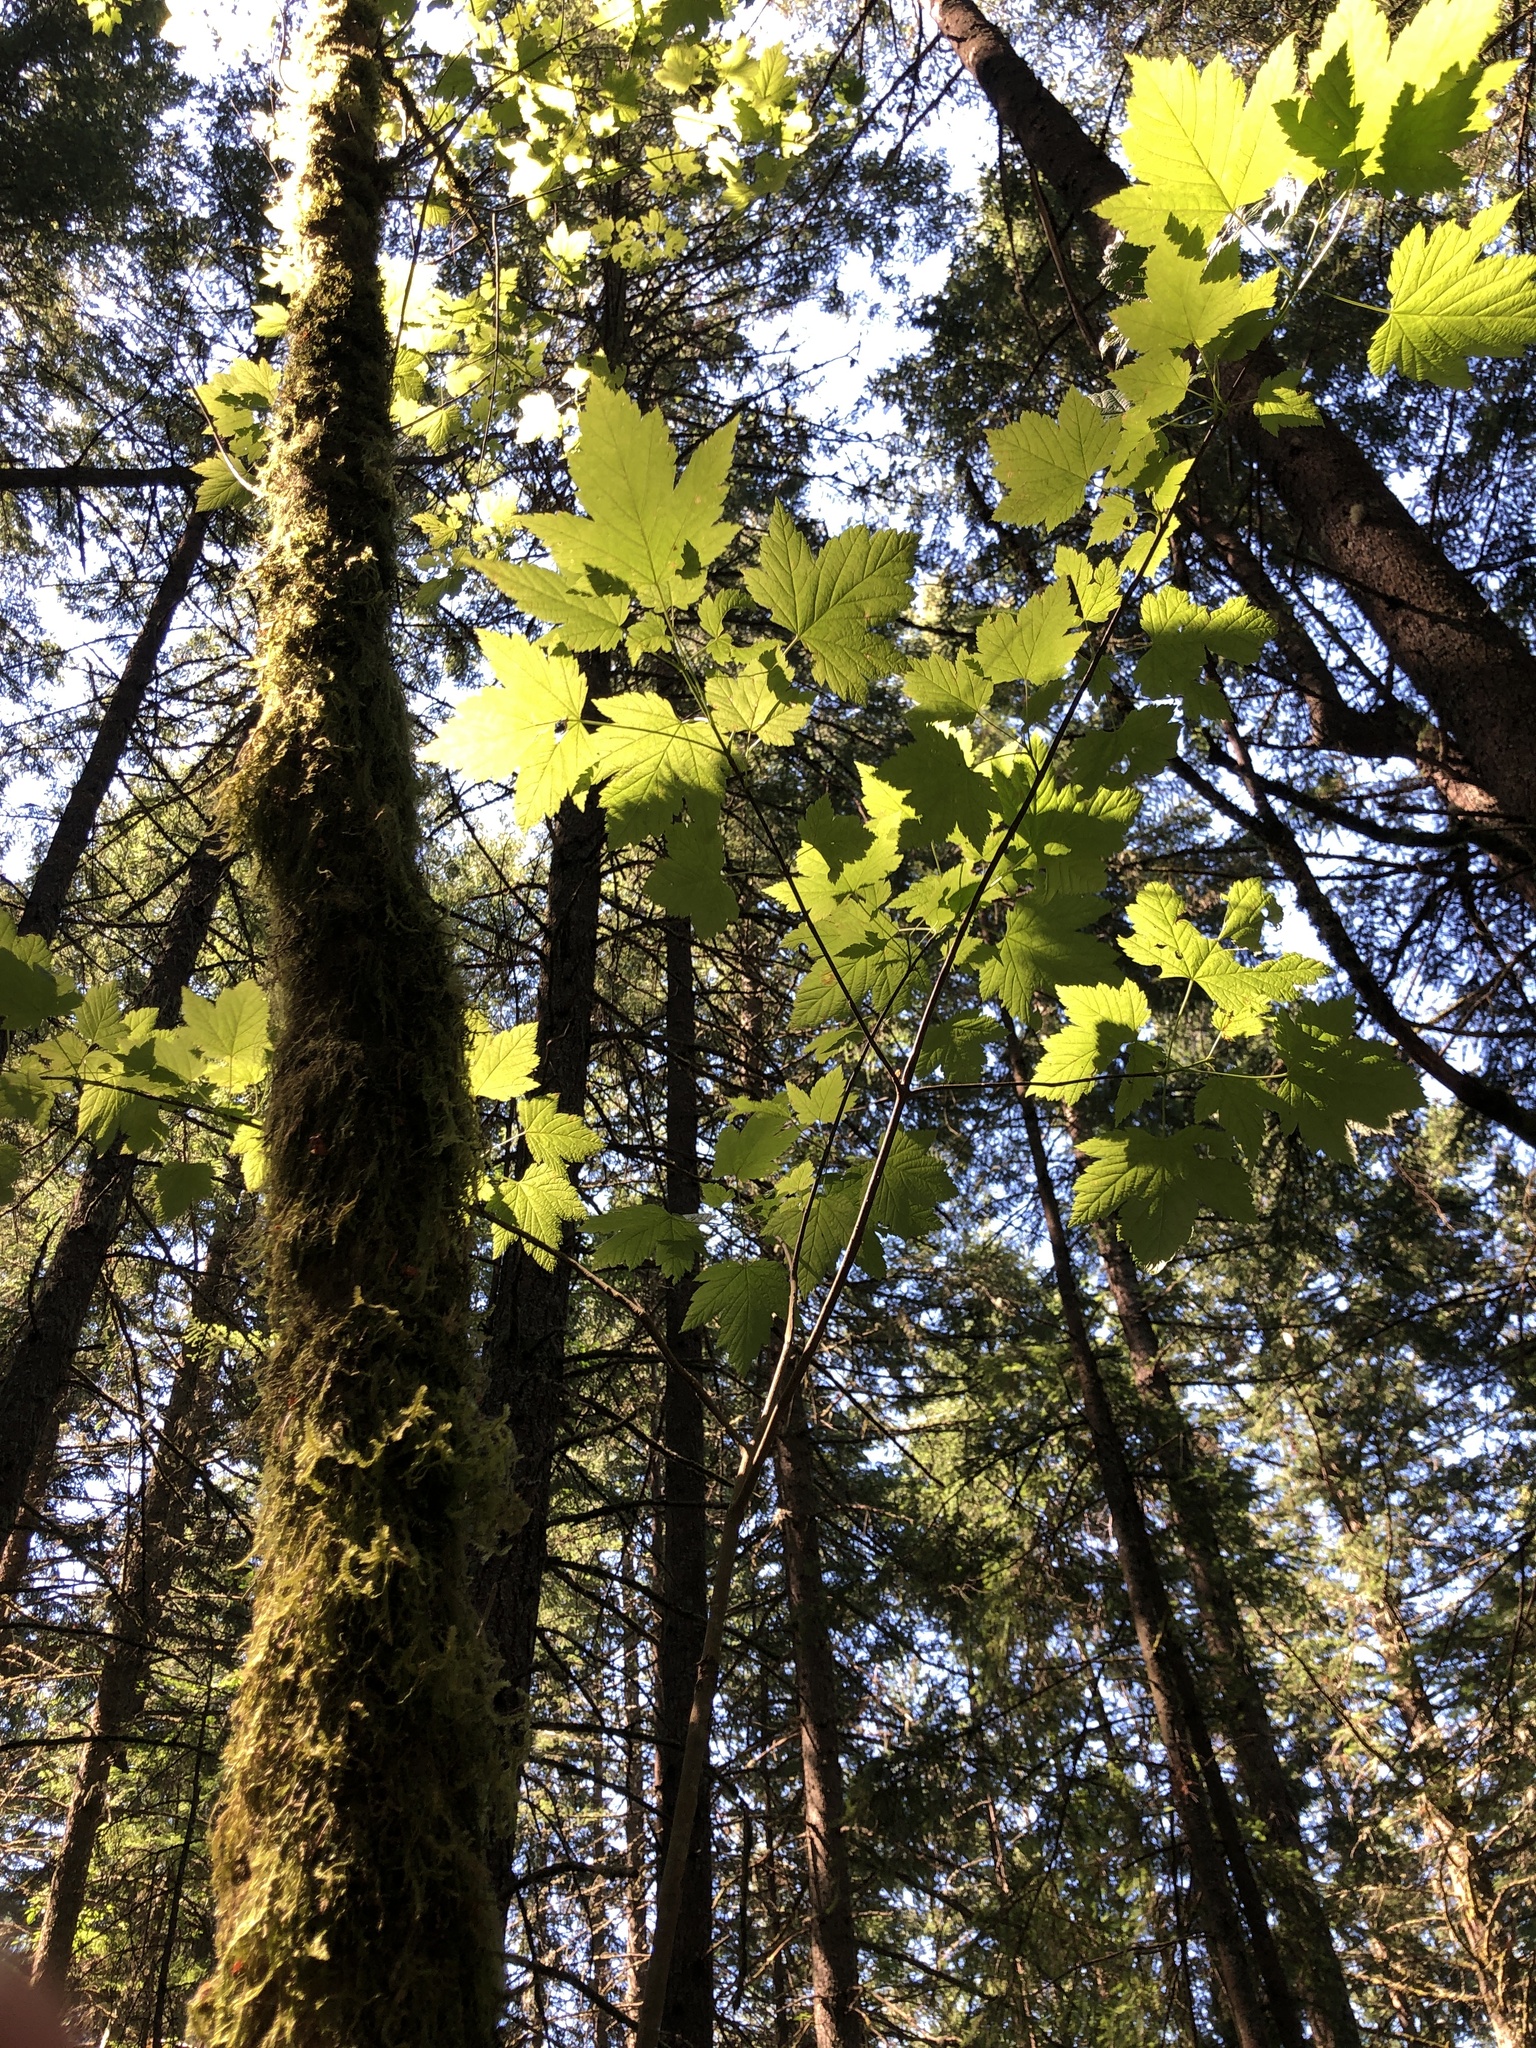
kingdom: Plantae
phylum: Tracheophyta
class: Magnoliopsida
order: Sapindales
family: Sapindaceae
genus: Acer
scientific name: Acer glabrum
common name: Rocky mountain maple
